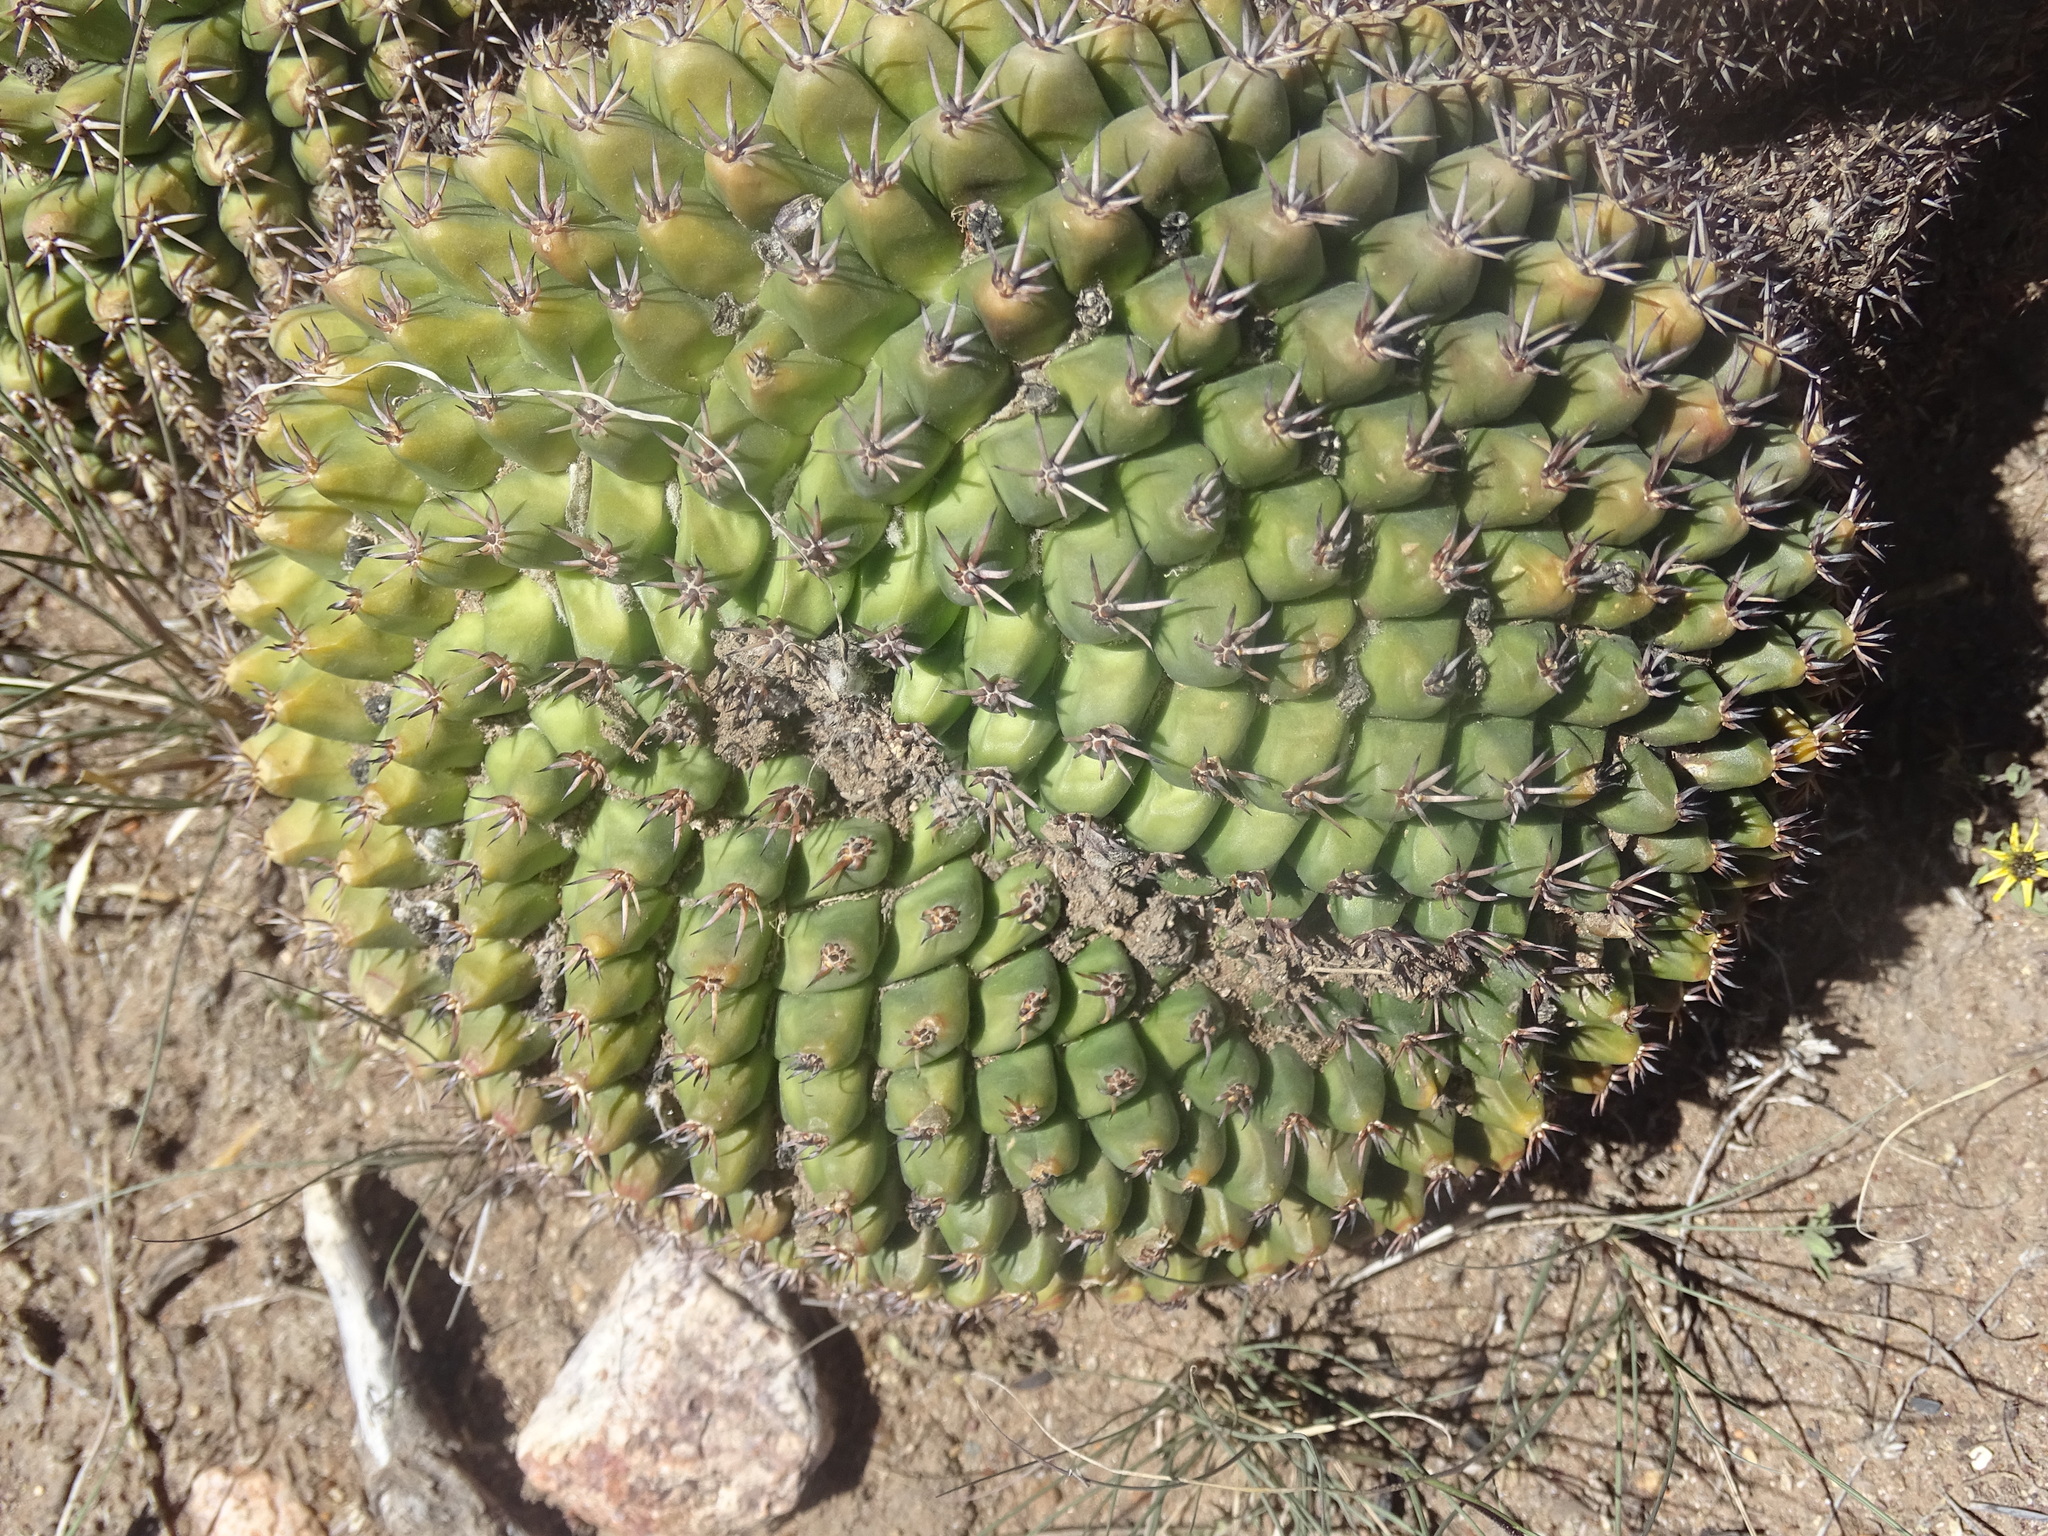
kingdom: Plantae
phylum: Tracheophyta
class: Magnoliopsida
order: Caryophyllales
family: Cactaceae
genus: Mammillaria
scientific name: Mammillaria uncinata
